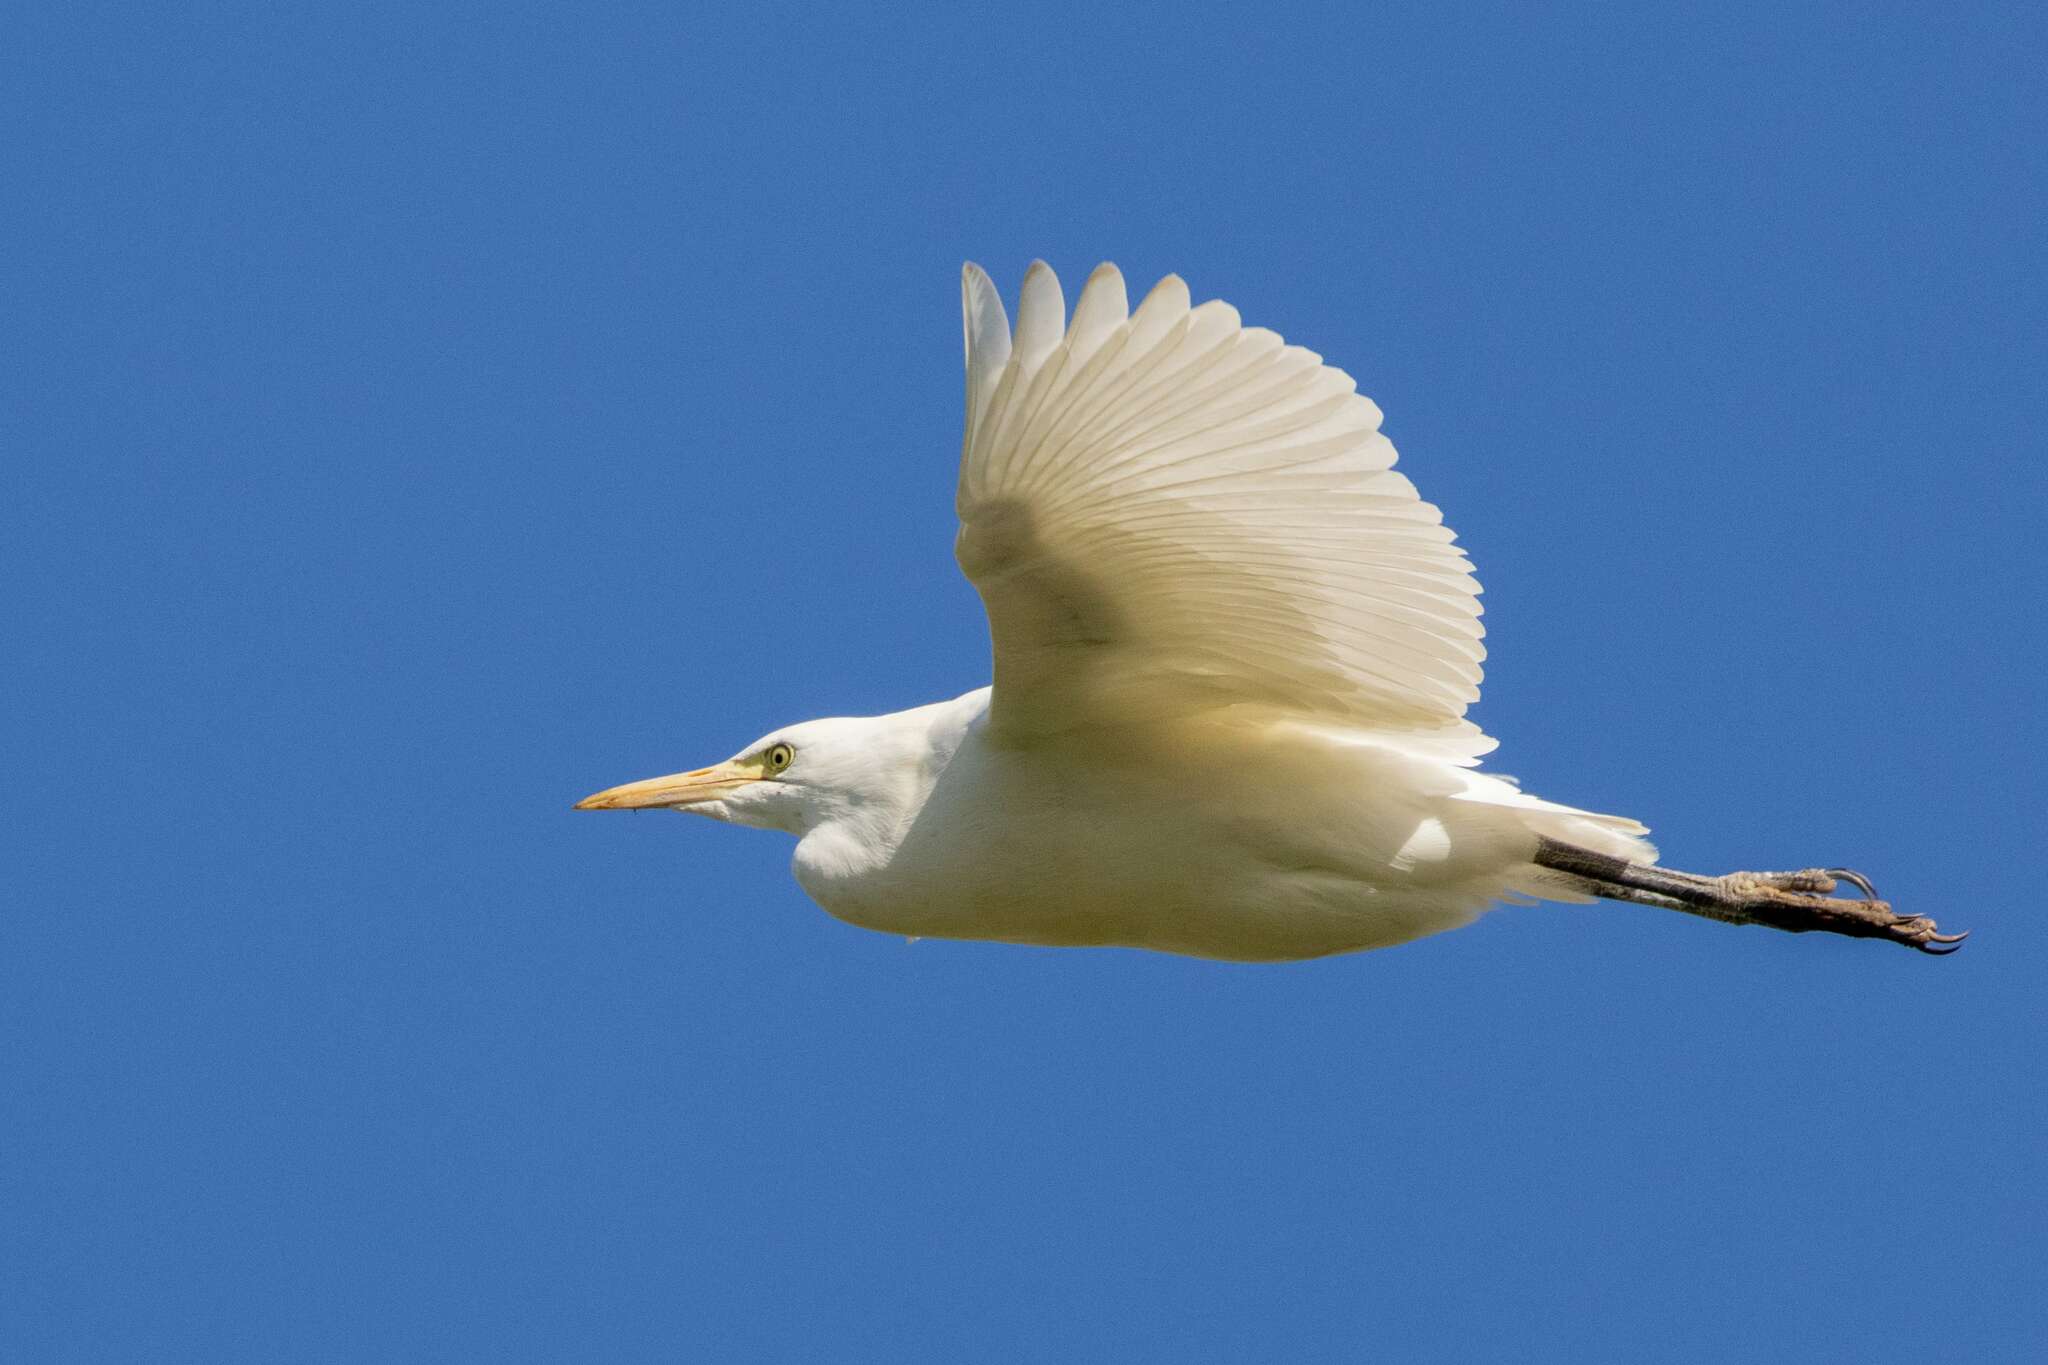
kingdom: Animalia
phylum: Chordata
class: Aves
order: Pelecaniformes
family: Ardeidae
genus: Bubulcus
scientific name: Bubulcus ibis
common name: Cattle egret
